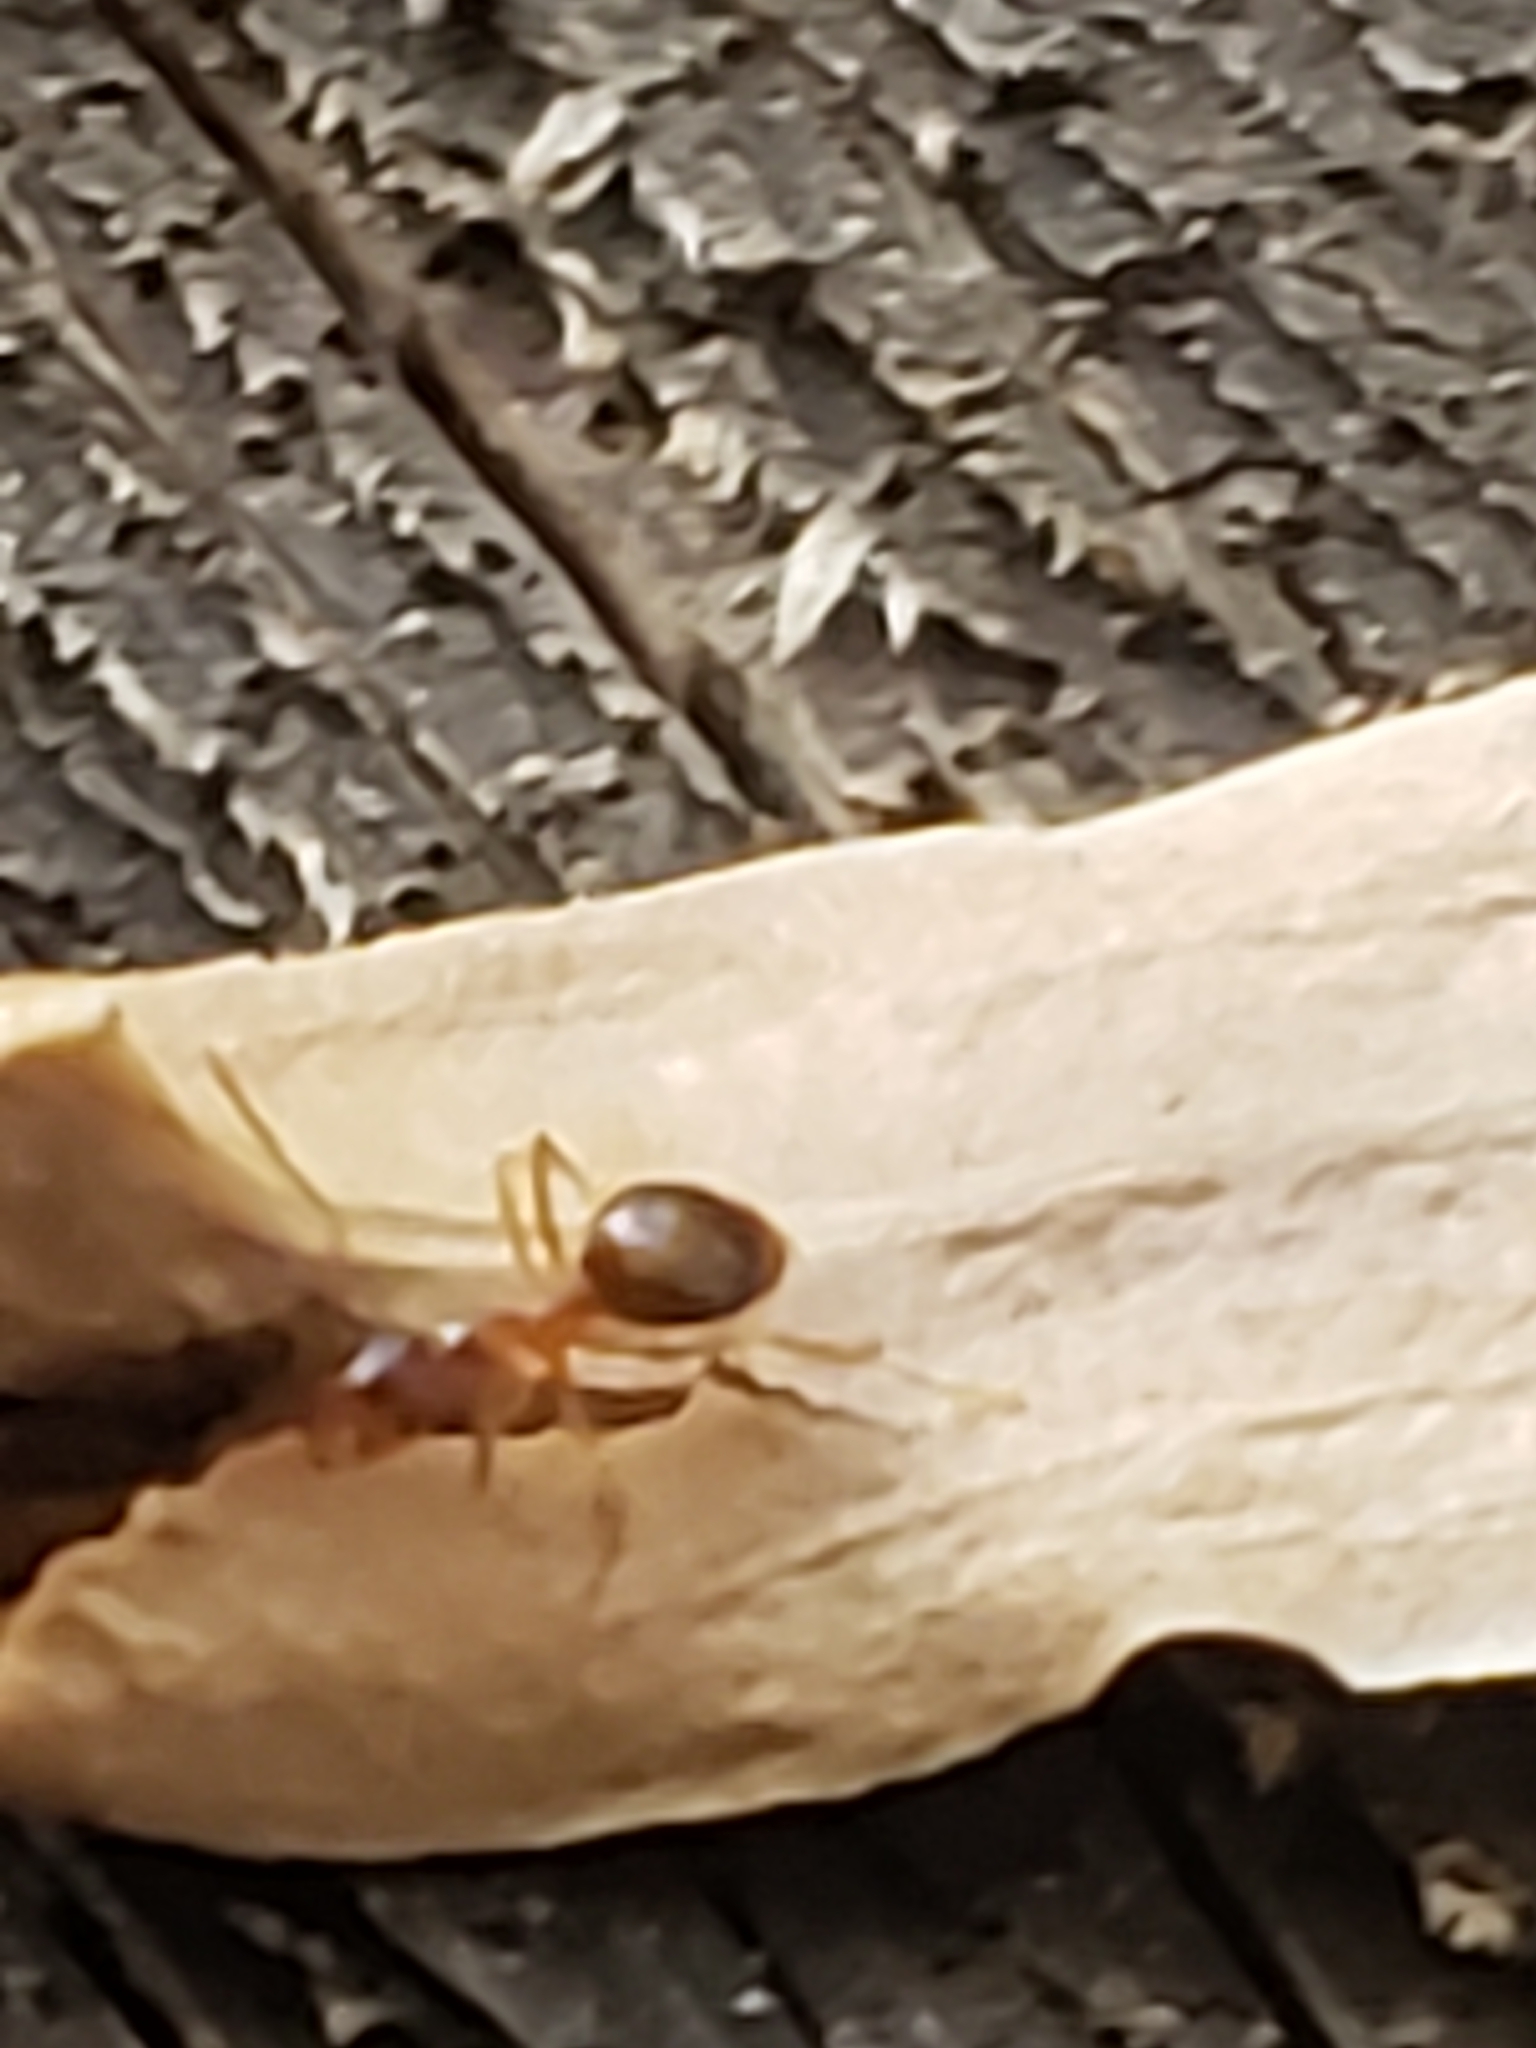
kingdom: Animalia
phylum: Arthropoda
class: Insecta
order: Hymenoptera
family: Formicidae
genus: Prenolepis
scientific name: Prenolepis imparis
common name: Small honey ant
